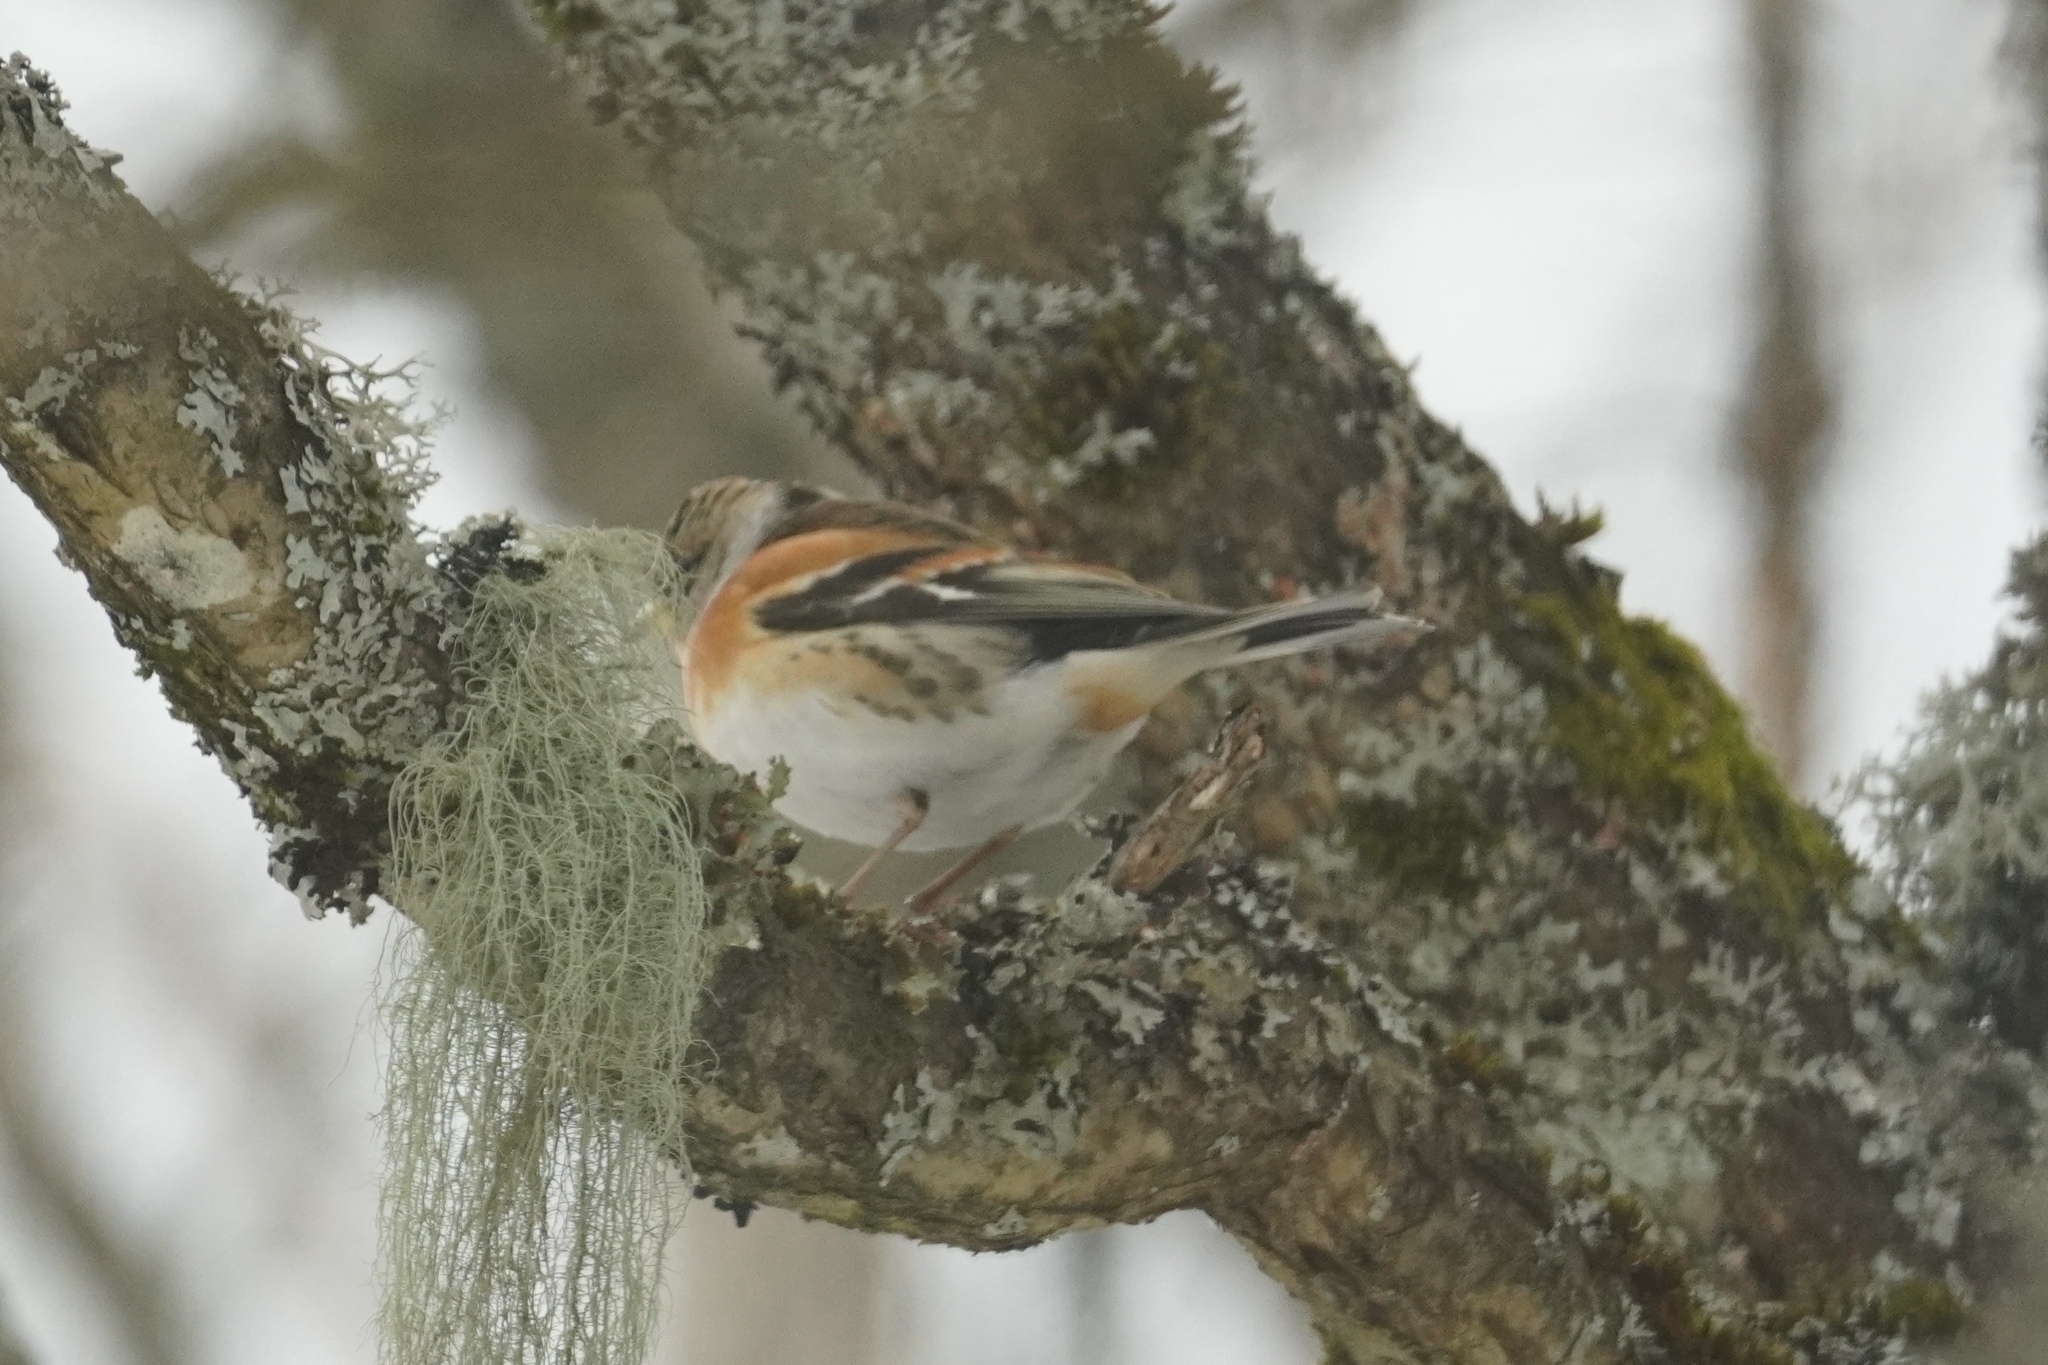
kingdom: Animalia
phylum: Chordata
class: Aves
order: Passeriformes
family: Fringillidae
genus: Fringilla
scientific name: Fringilla montifringilla
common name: Brambling
